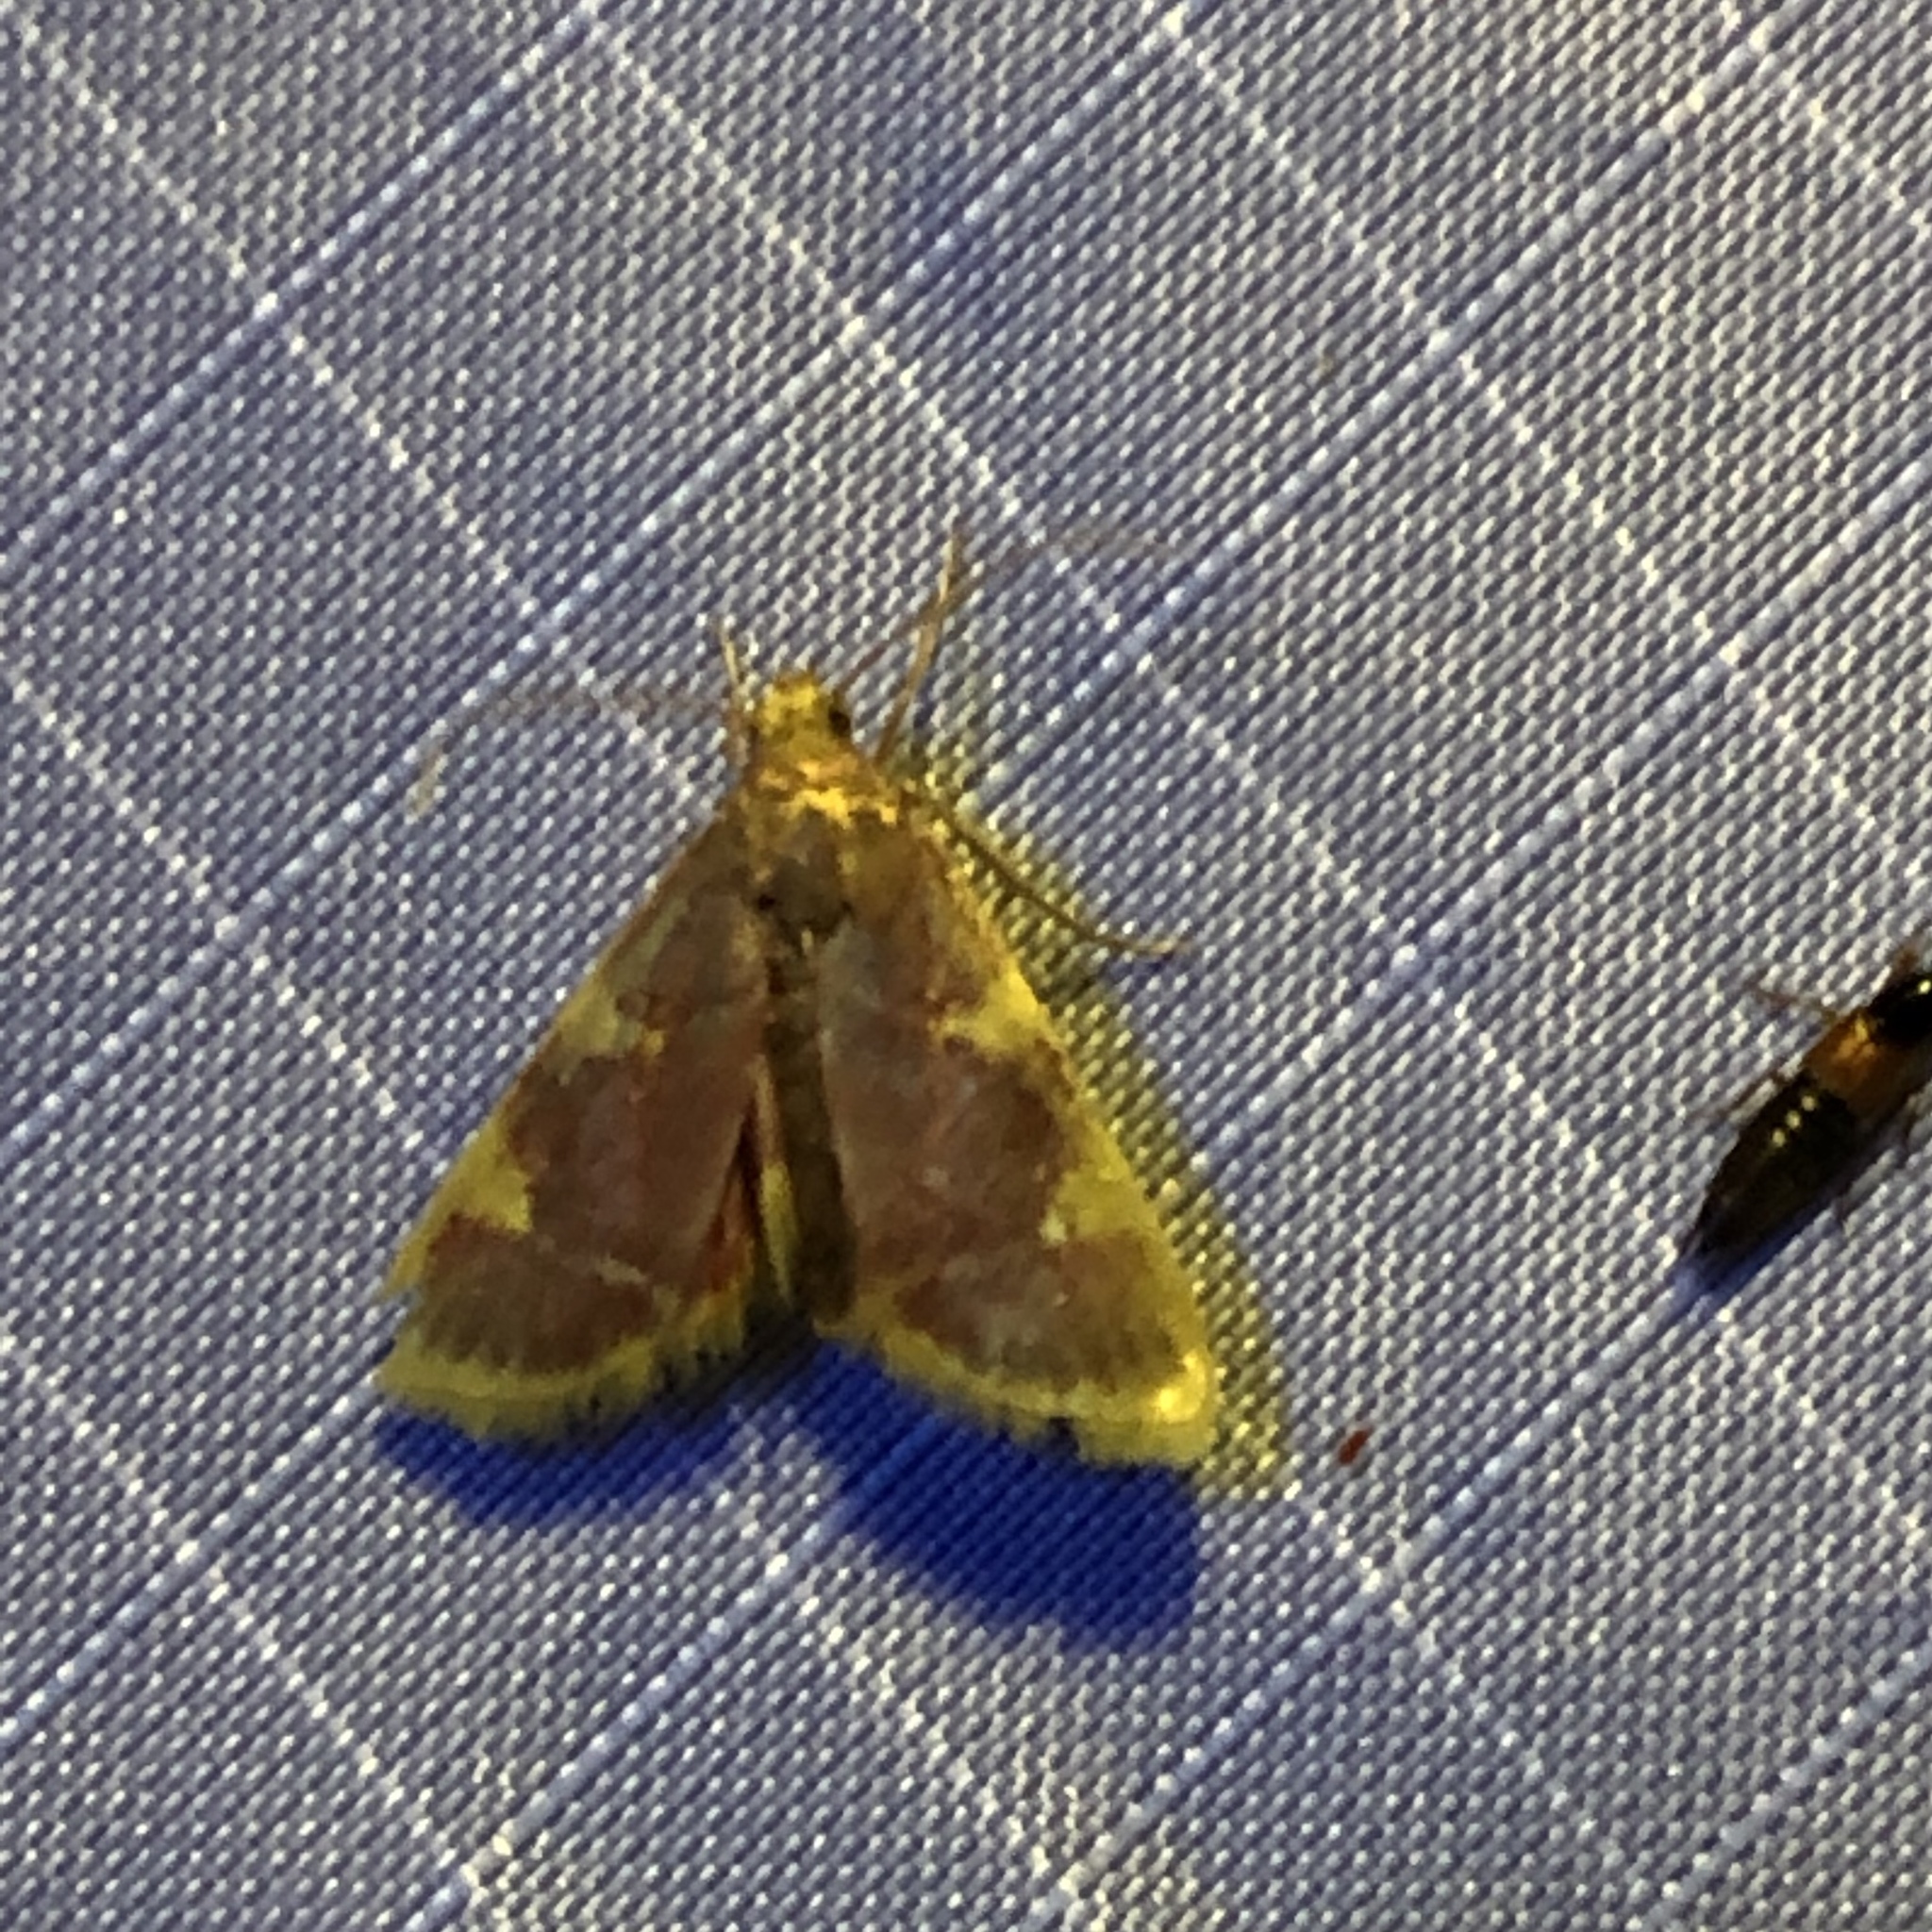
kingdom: Animalia
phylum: Arthropoda
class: Insecta
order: Lepidoptera
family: Pyralidae
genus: Hypsopygia
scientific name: Hypsopygia costalis
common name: Gold triangle
